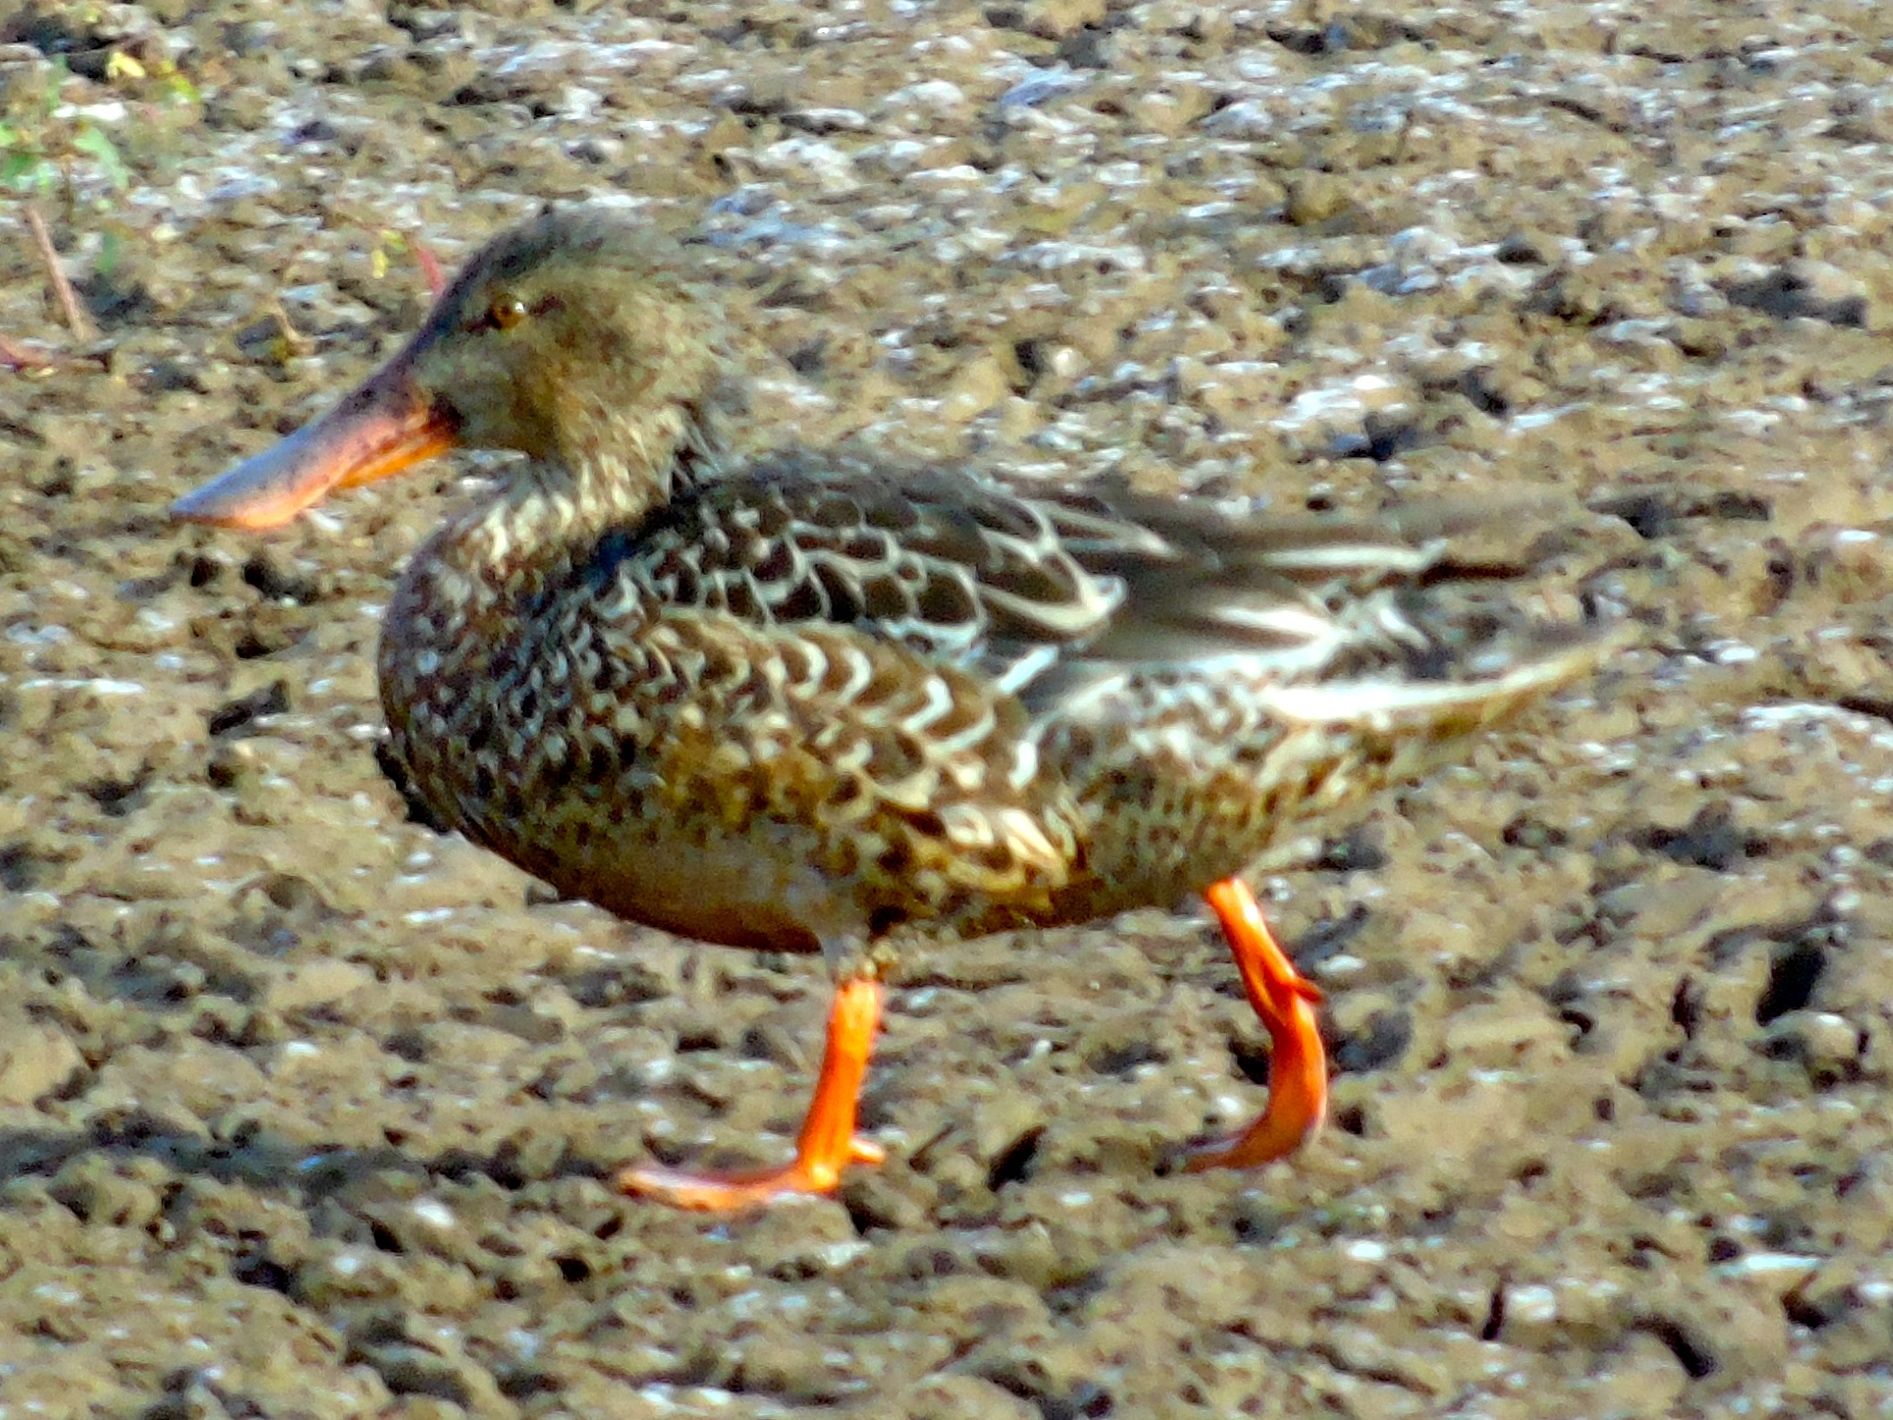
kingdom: Animalia
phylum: Chordata
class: Aves
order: Anseriformes
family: Anatidae
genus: Spatula
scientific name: Spatula clypeata
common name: Northern shoveler
